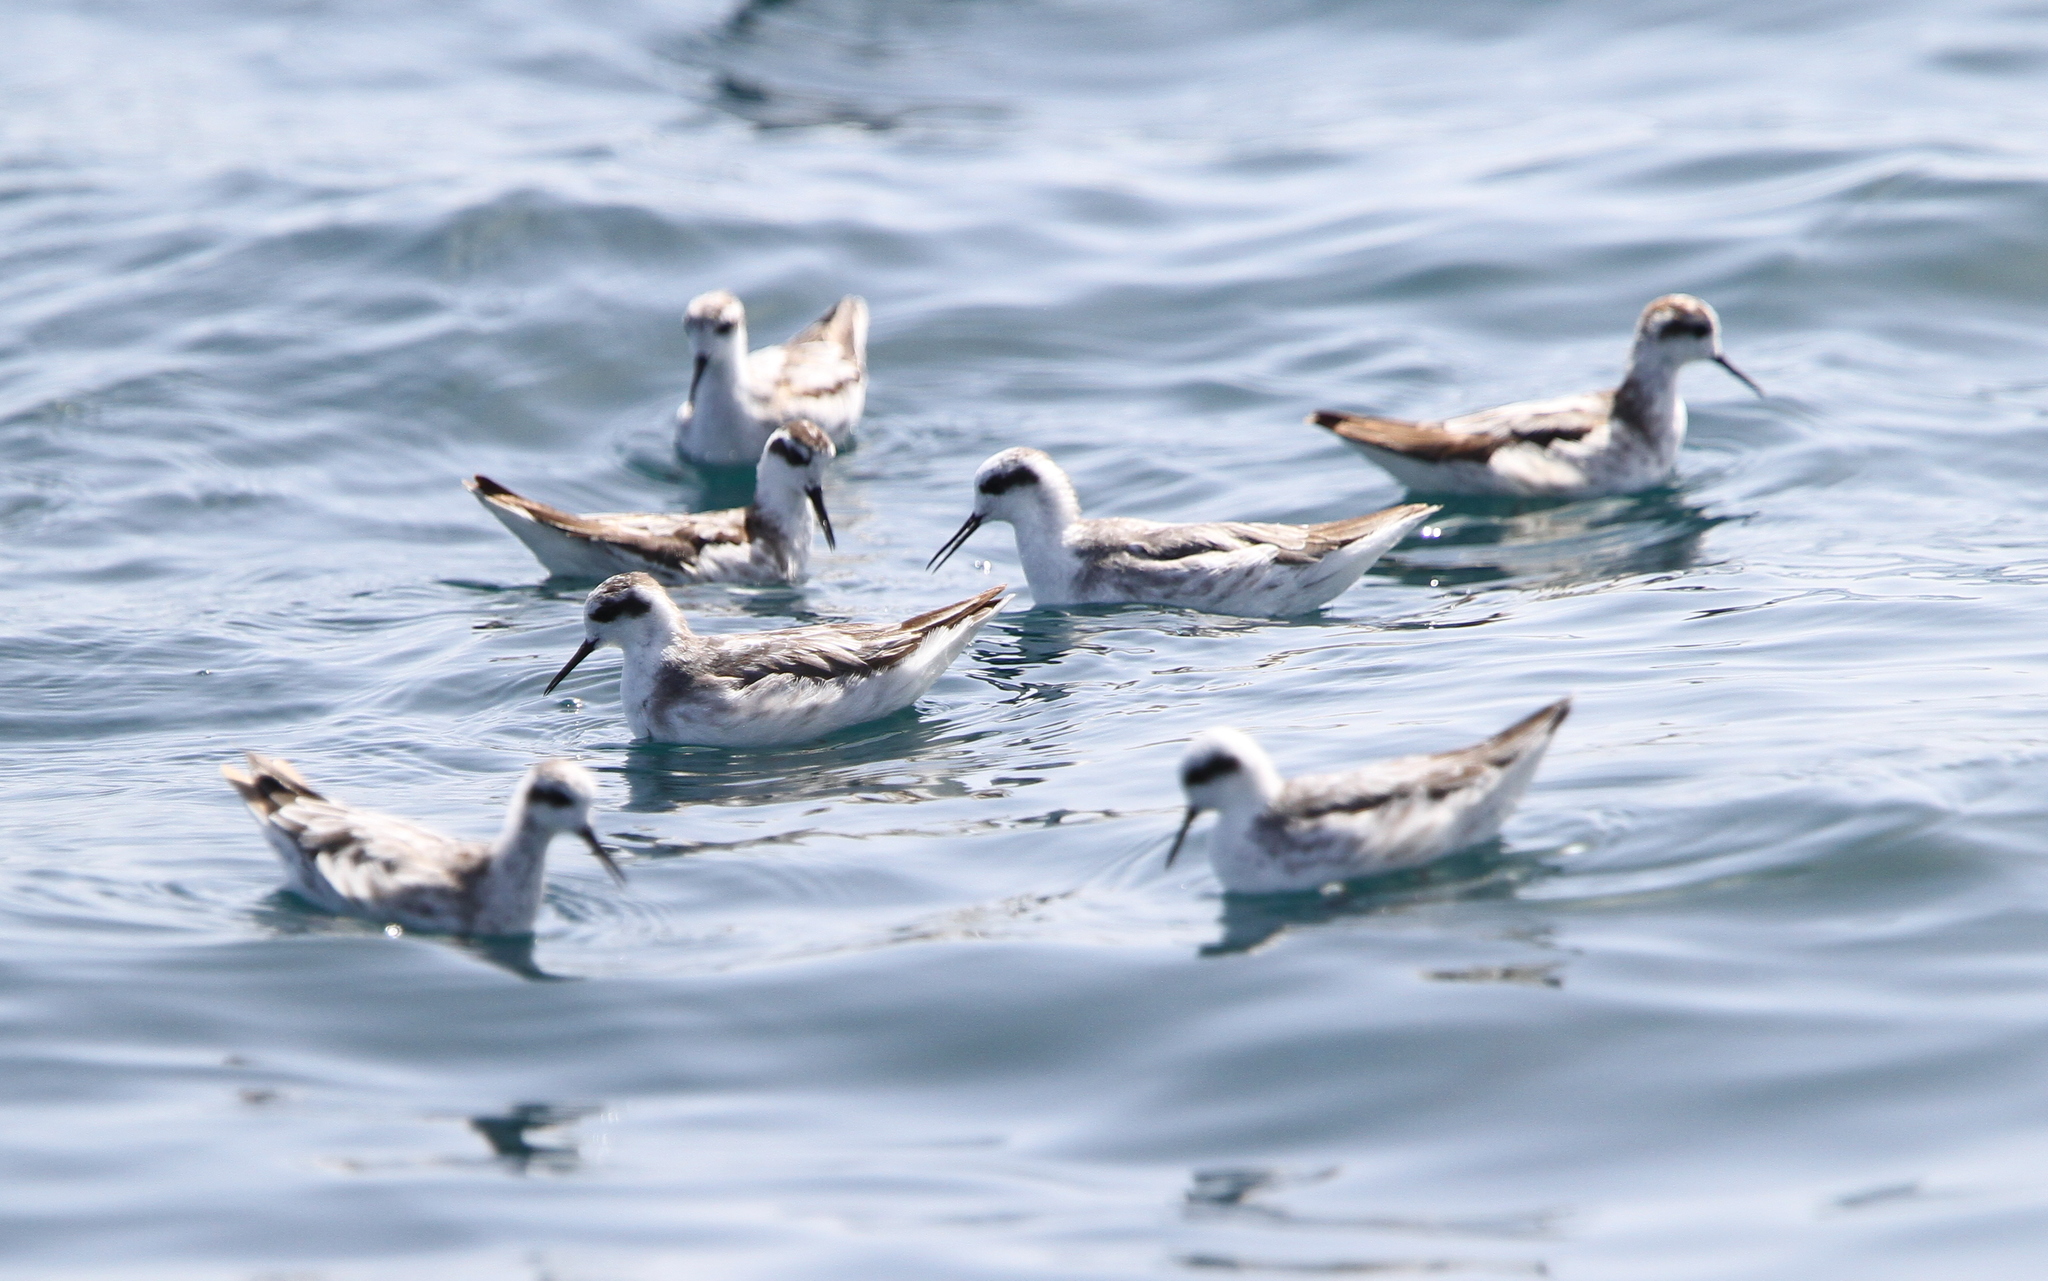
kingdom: Animalia
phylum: Chordata
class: Aves
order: Charadriiformes
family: Scolopacidae
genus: Phalaropus
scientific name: Phalaropus lobatus
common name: Red-necked phalarope
